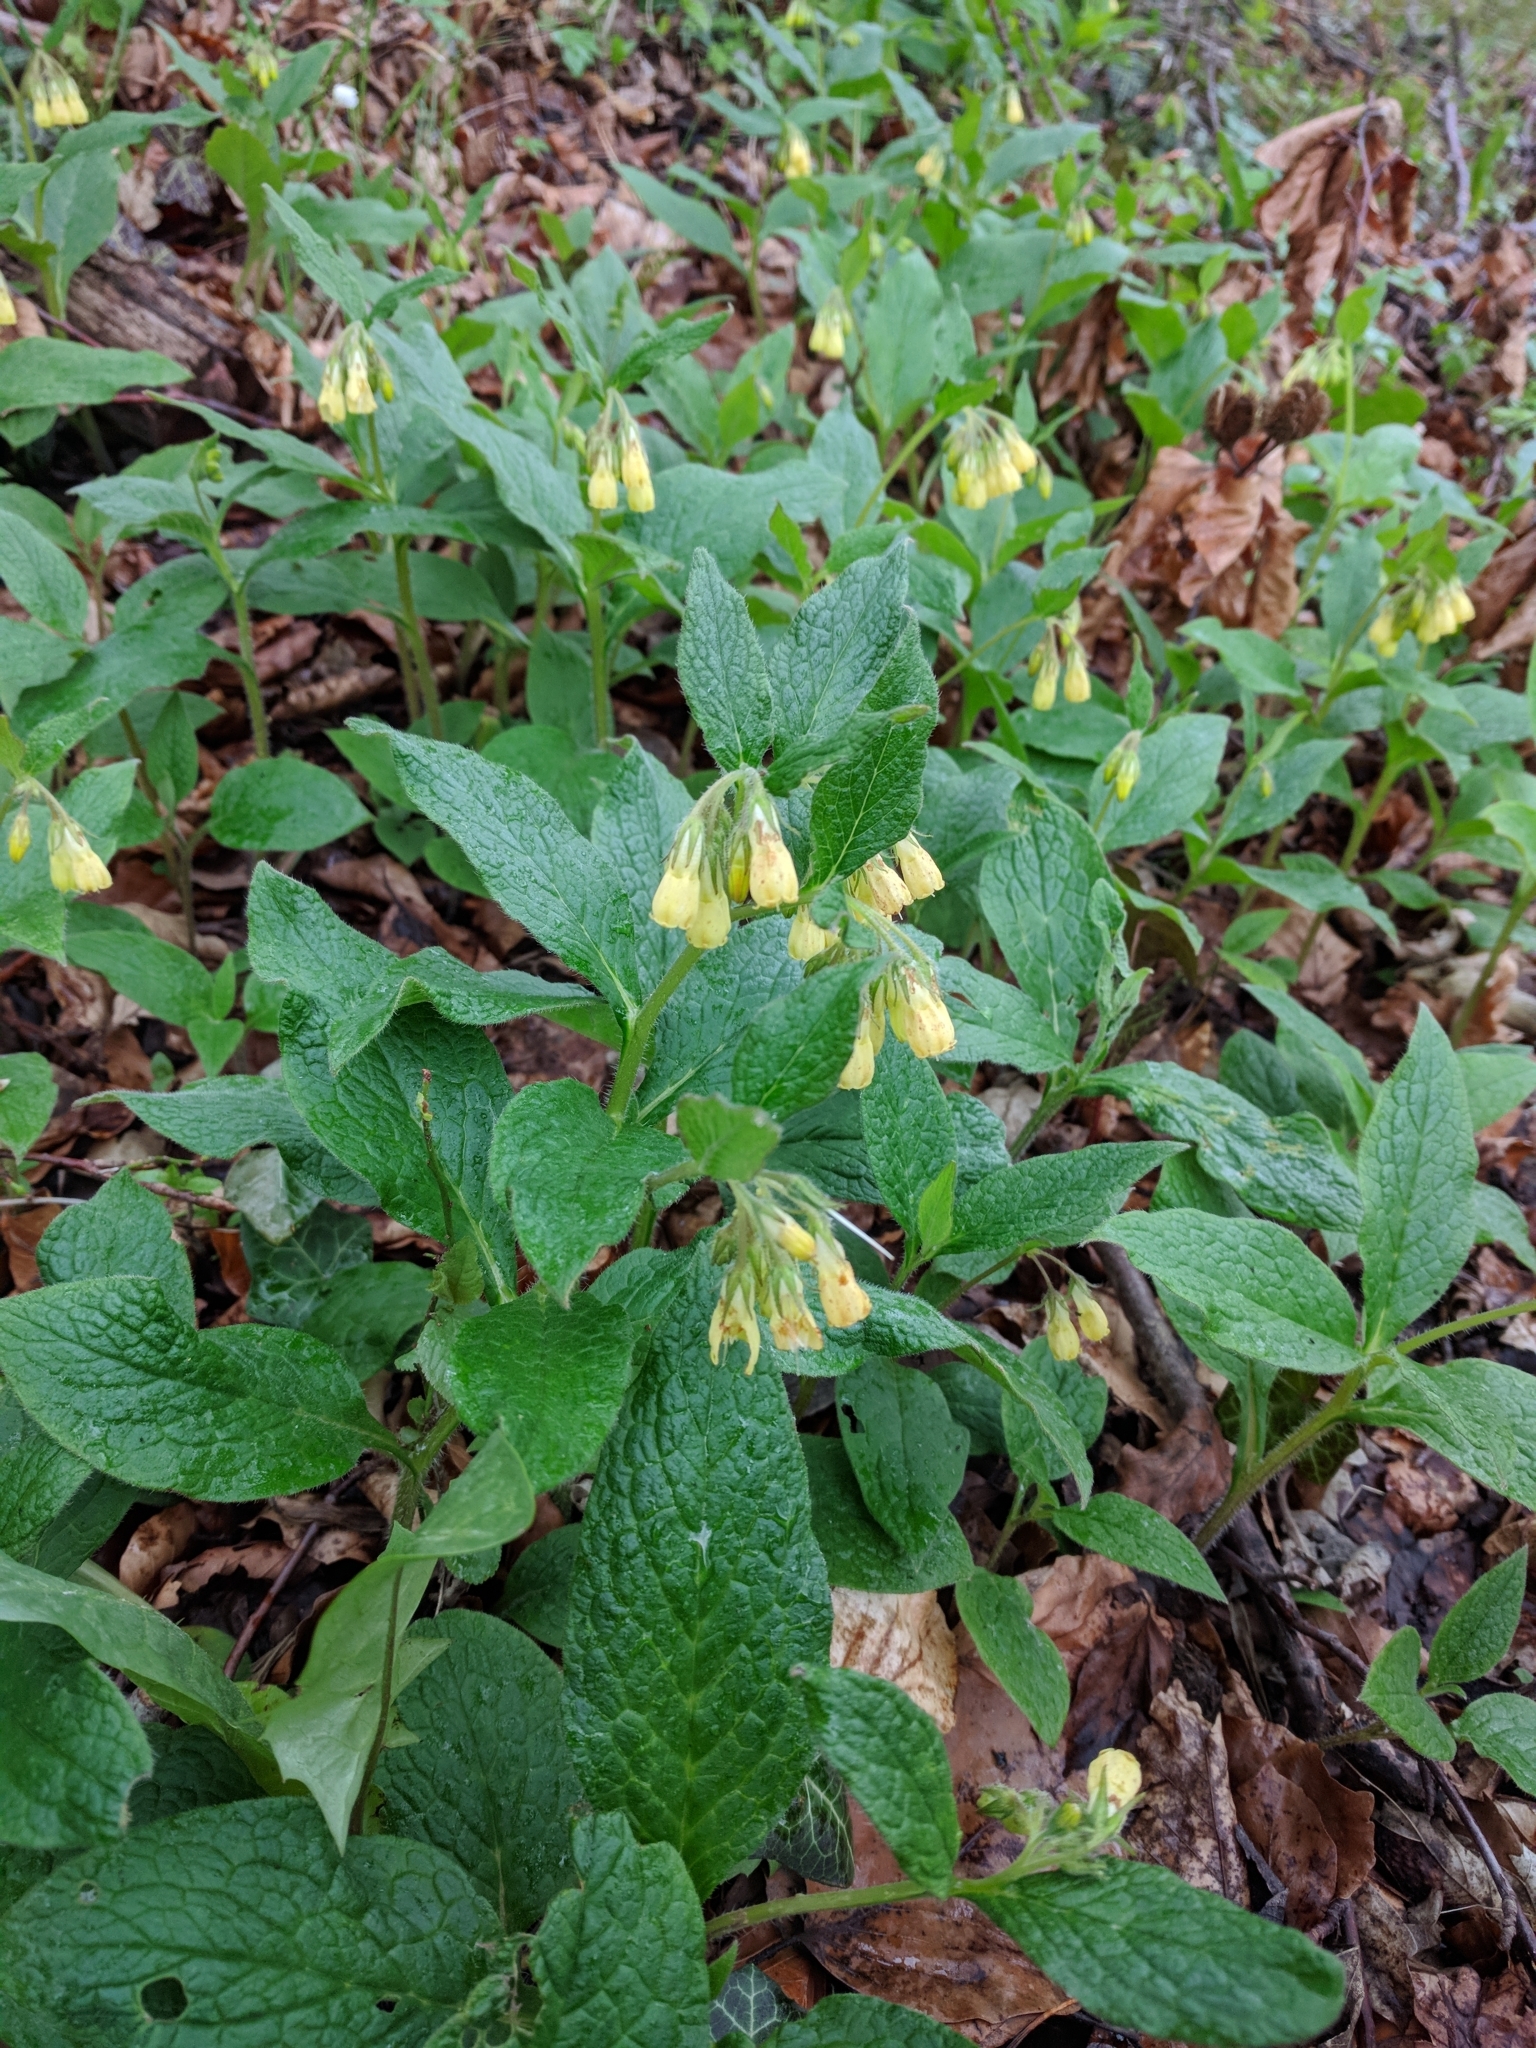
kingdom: Plantae
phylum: Tracheophyta
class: Magnoliopsida
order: Boraginales
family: Boraginaceae
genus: Symphytum
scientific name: Symphytum tuberosum
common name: Tuberous comfrey
